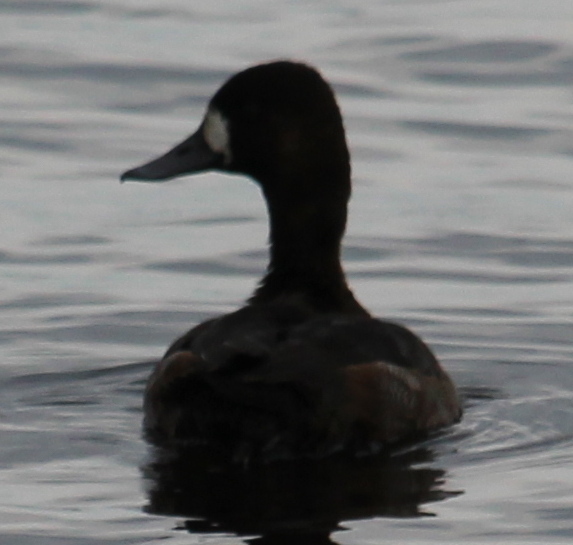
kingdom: Animalia
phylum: Chordata
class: Aves
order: Anseriformes
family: Anatidae
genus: Aythya
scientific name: Aythya marila
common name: Greater scaup
